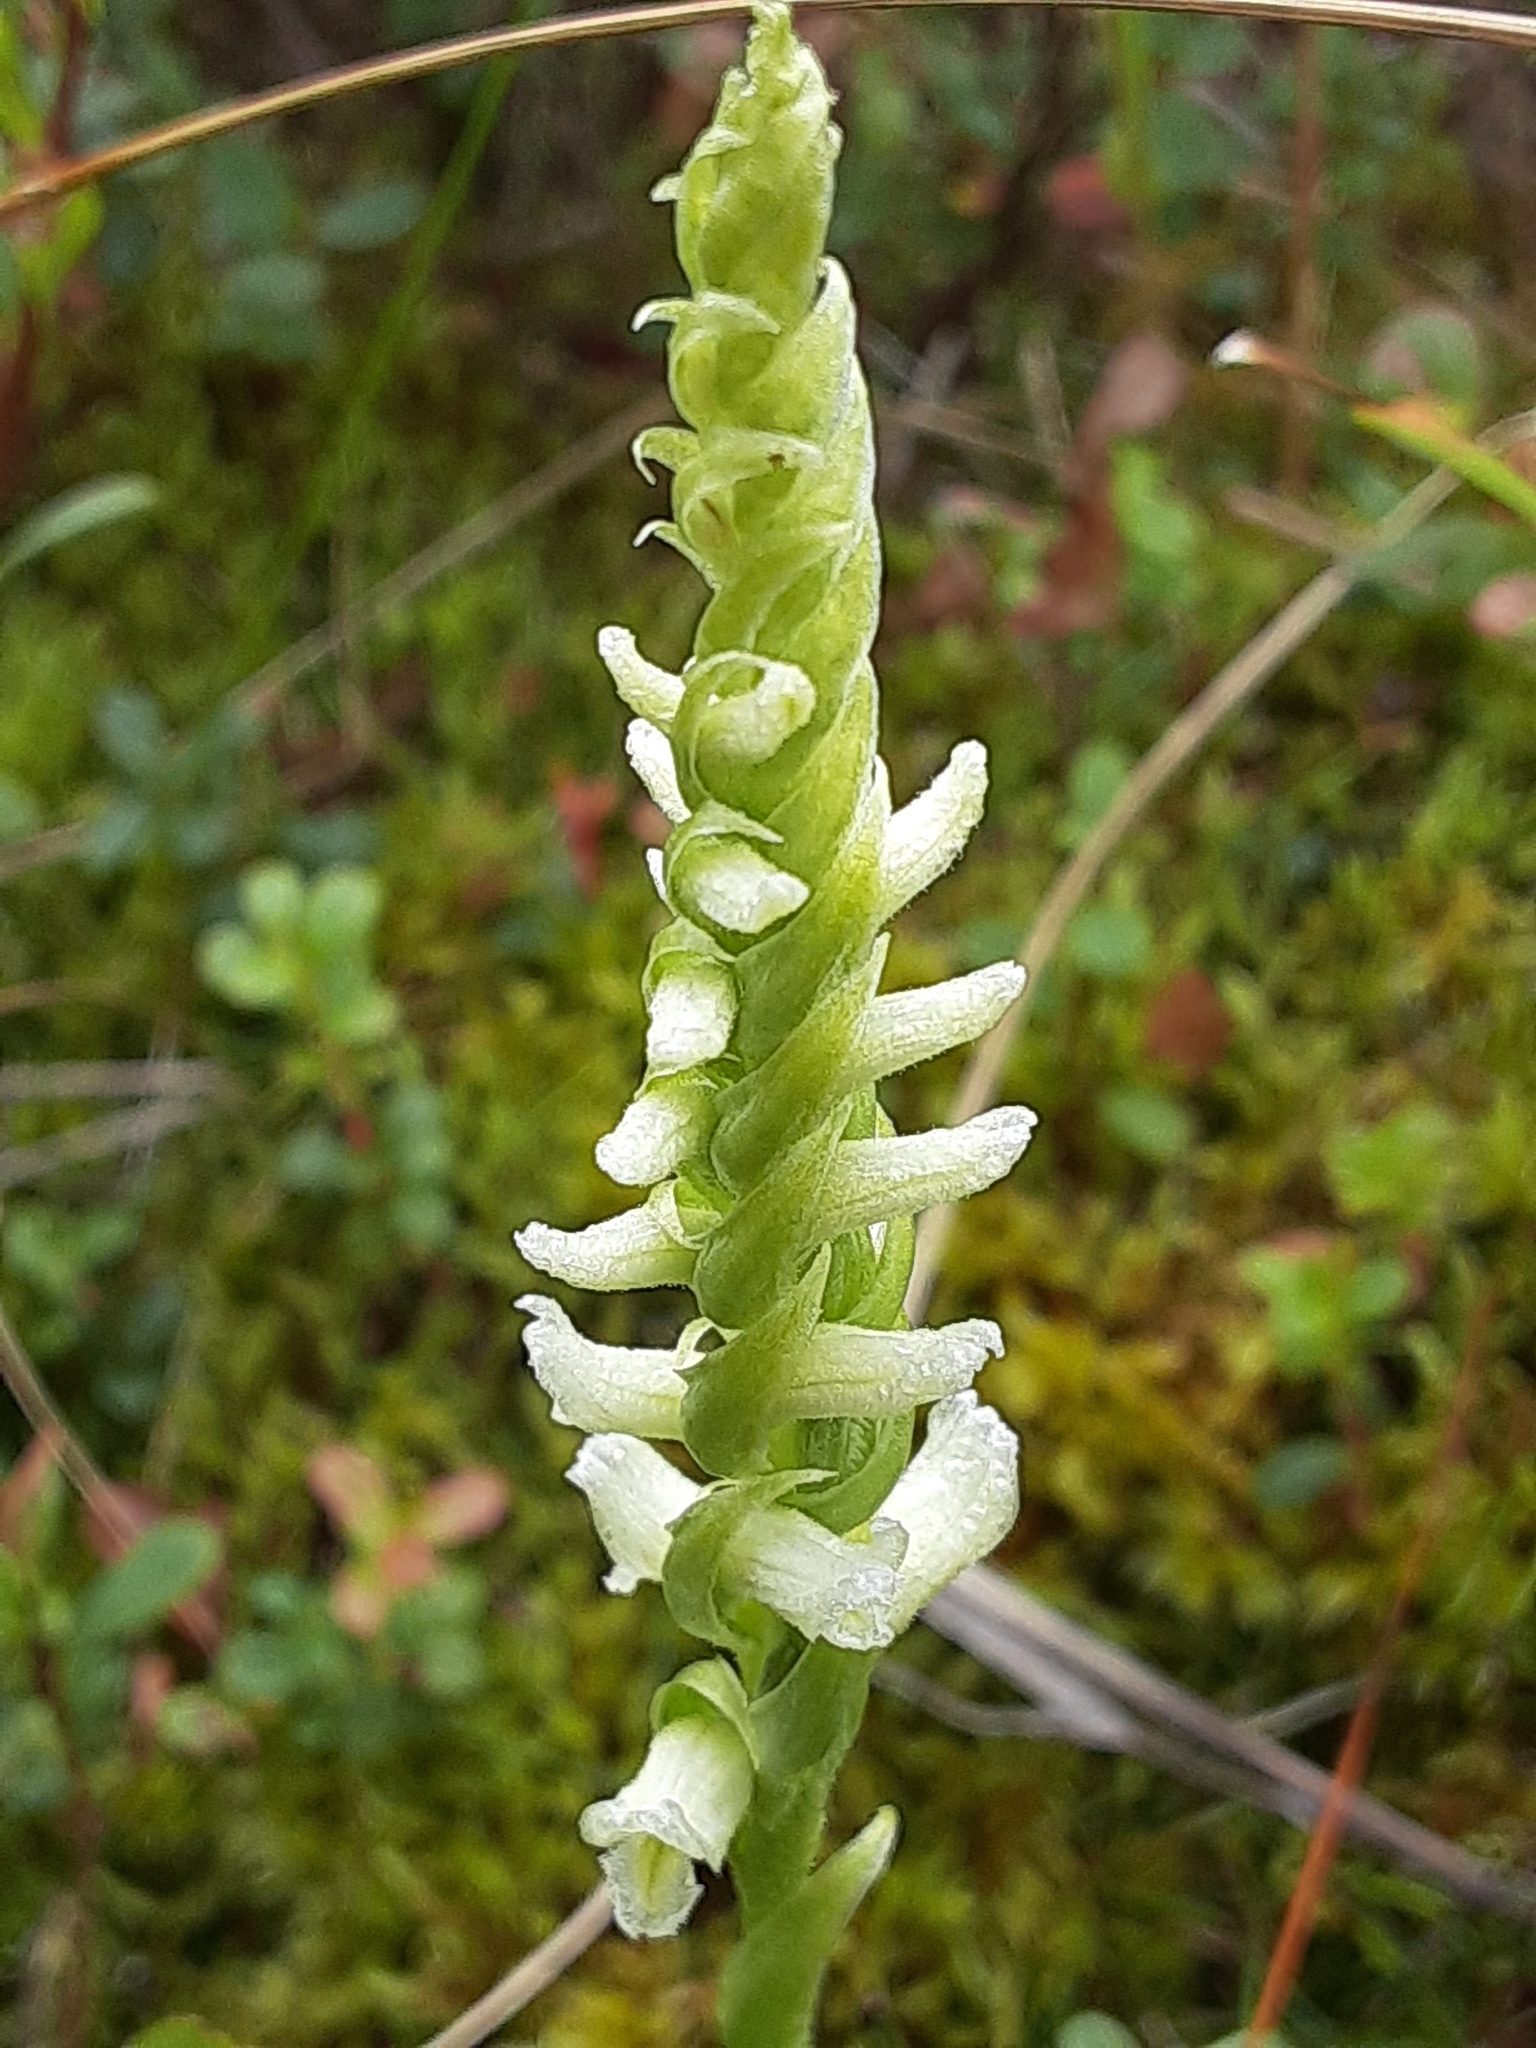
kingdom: Plantae
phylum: Tracheophyta
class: Liliopsida
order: Asparagales
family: Orchidaceae
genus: Spiranthes
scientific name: Spiranthes romanzoffiana
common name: Irish lady's-tresses
